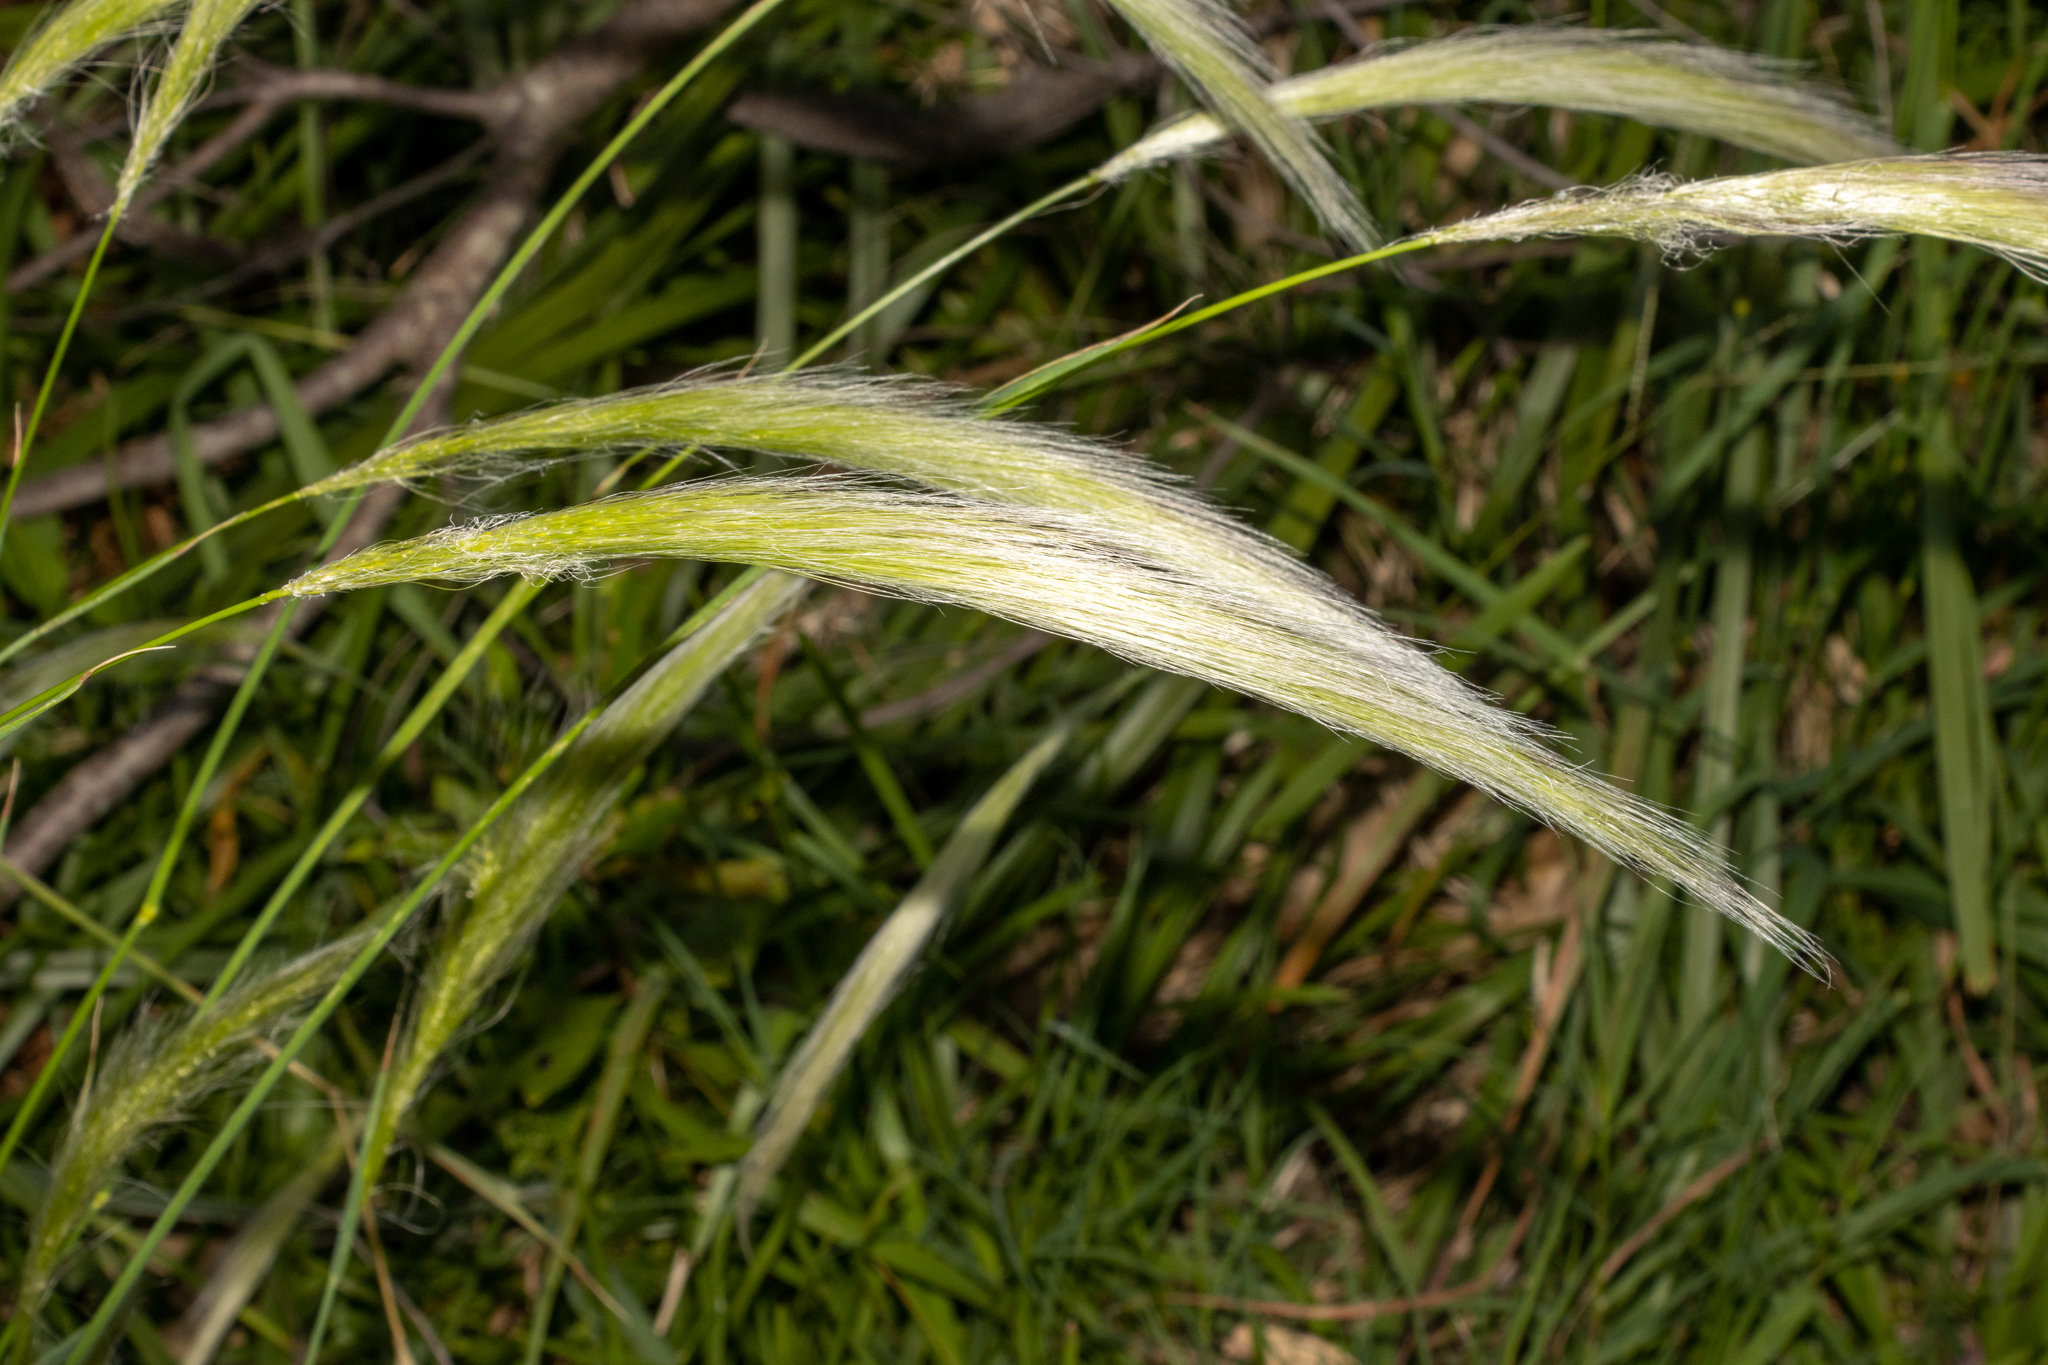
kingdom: Plantae
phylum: Tracheophyta
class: Liliopsida
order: Poales
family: Poaceae
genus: Dichelachne
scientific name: Dichelachne crinita
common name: Clovenfoot plumegrass
